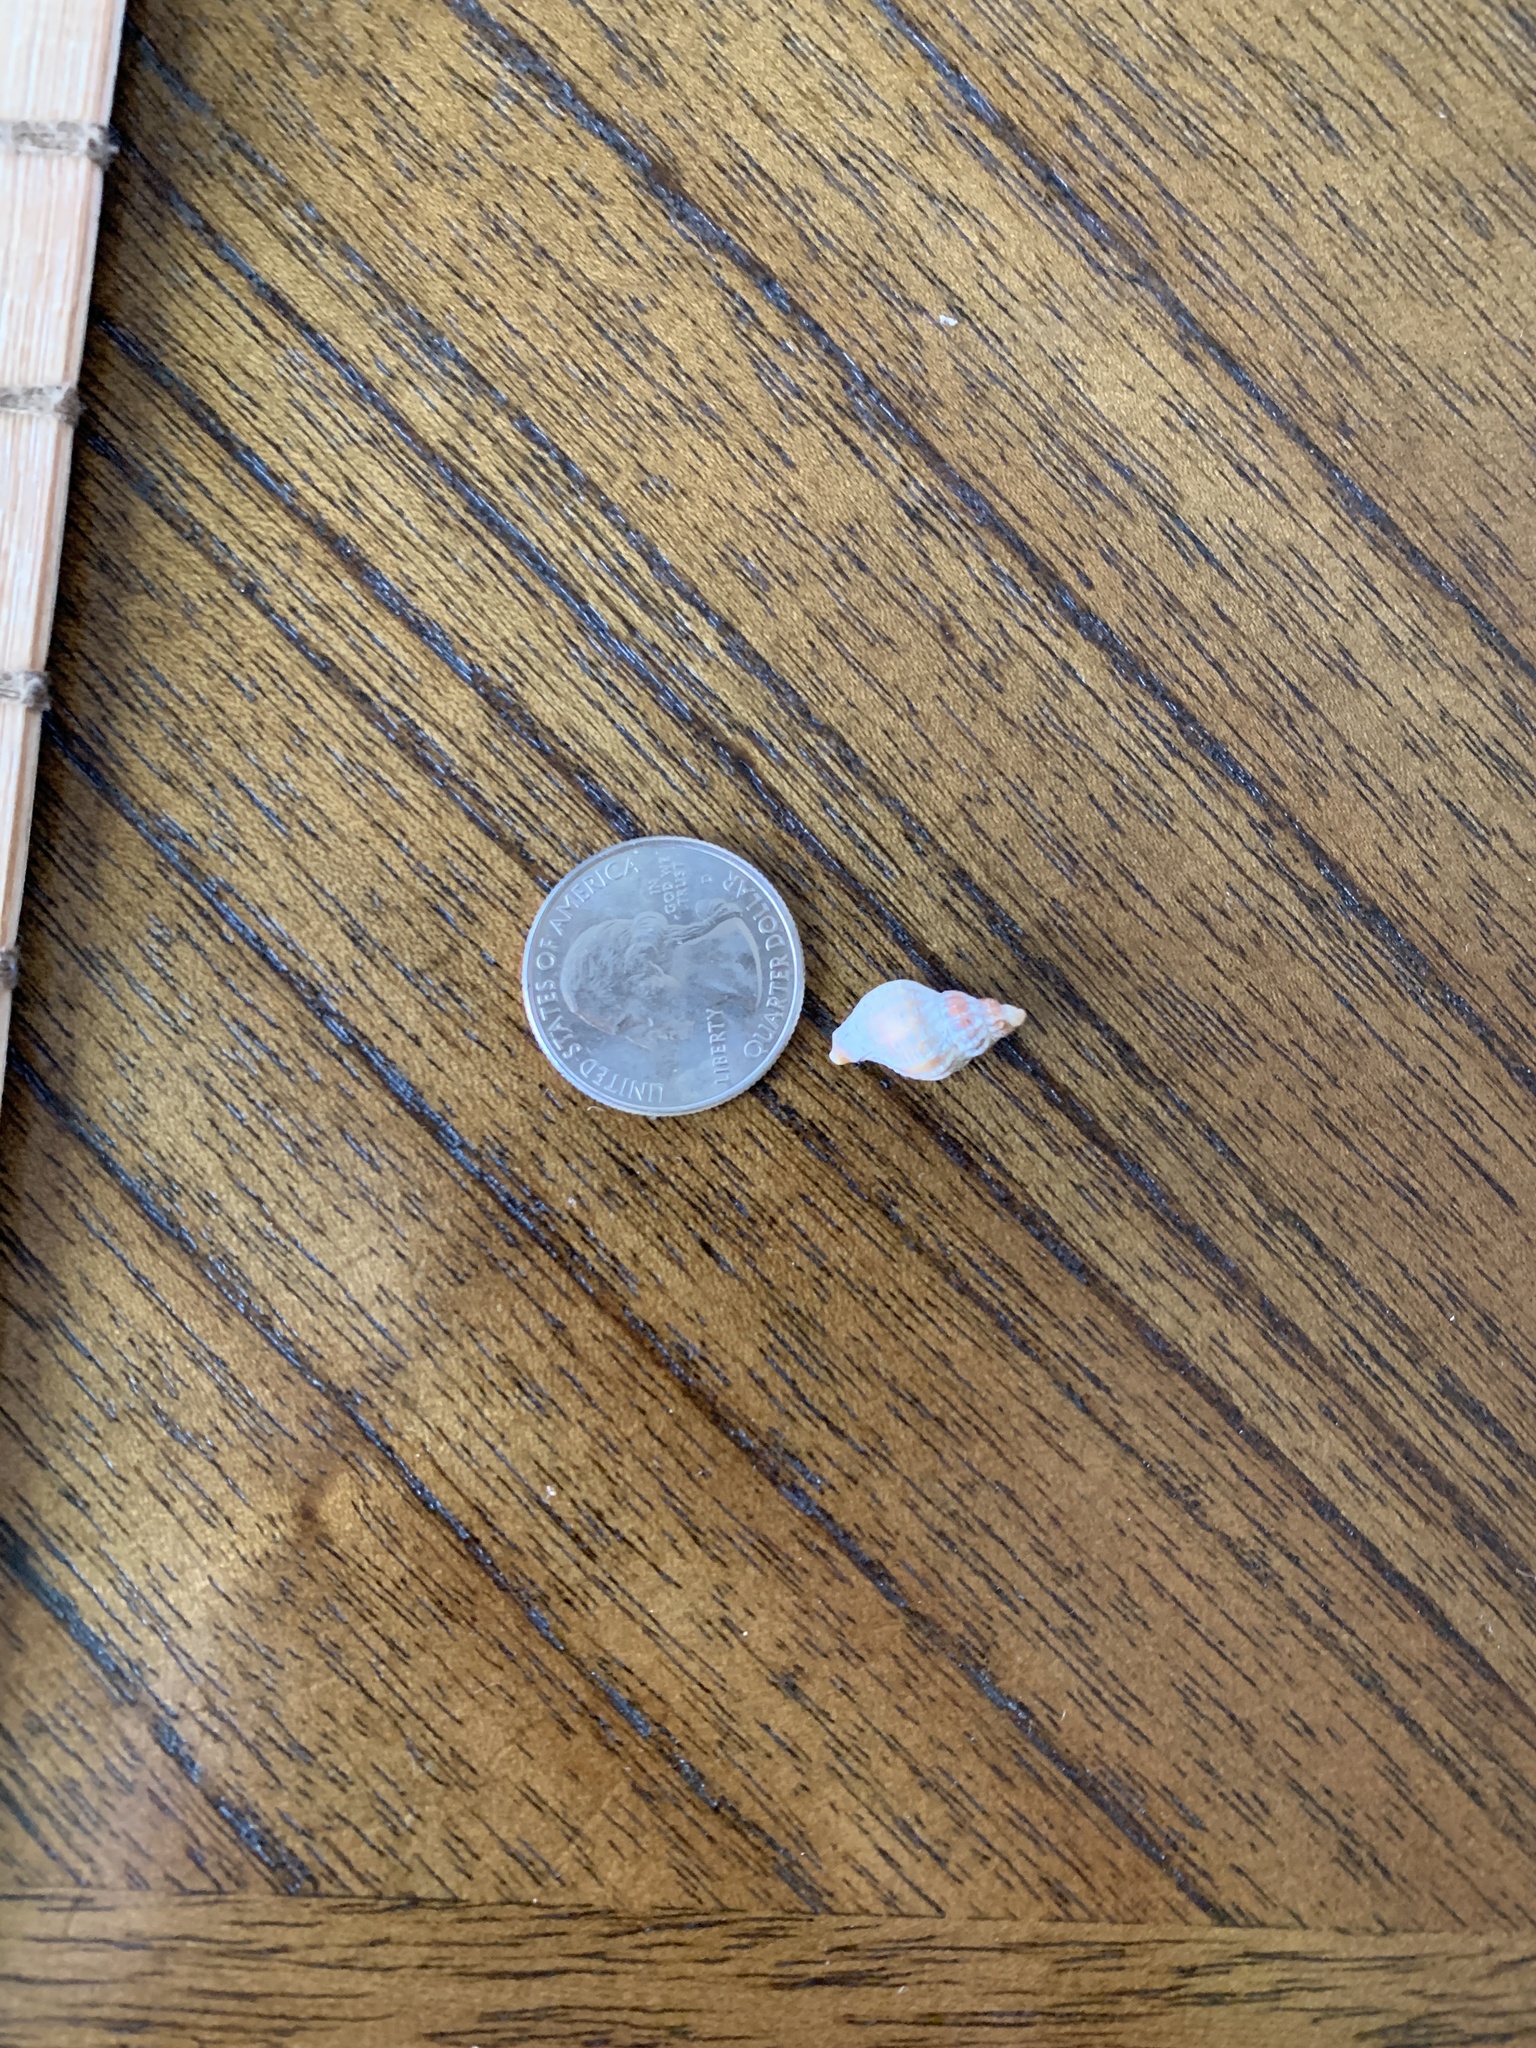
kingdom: Animalia
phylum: Mollusca
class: Gastropoda
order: Neogastropoda
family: Muricidae
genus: Urosalpinx
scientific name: Urosalpinx cinerea
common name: American sting winkle
